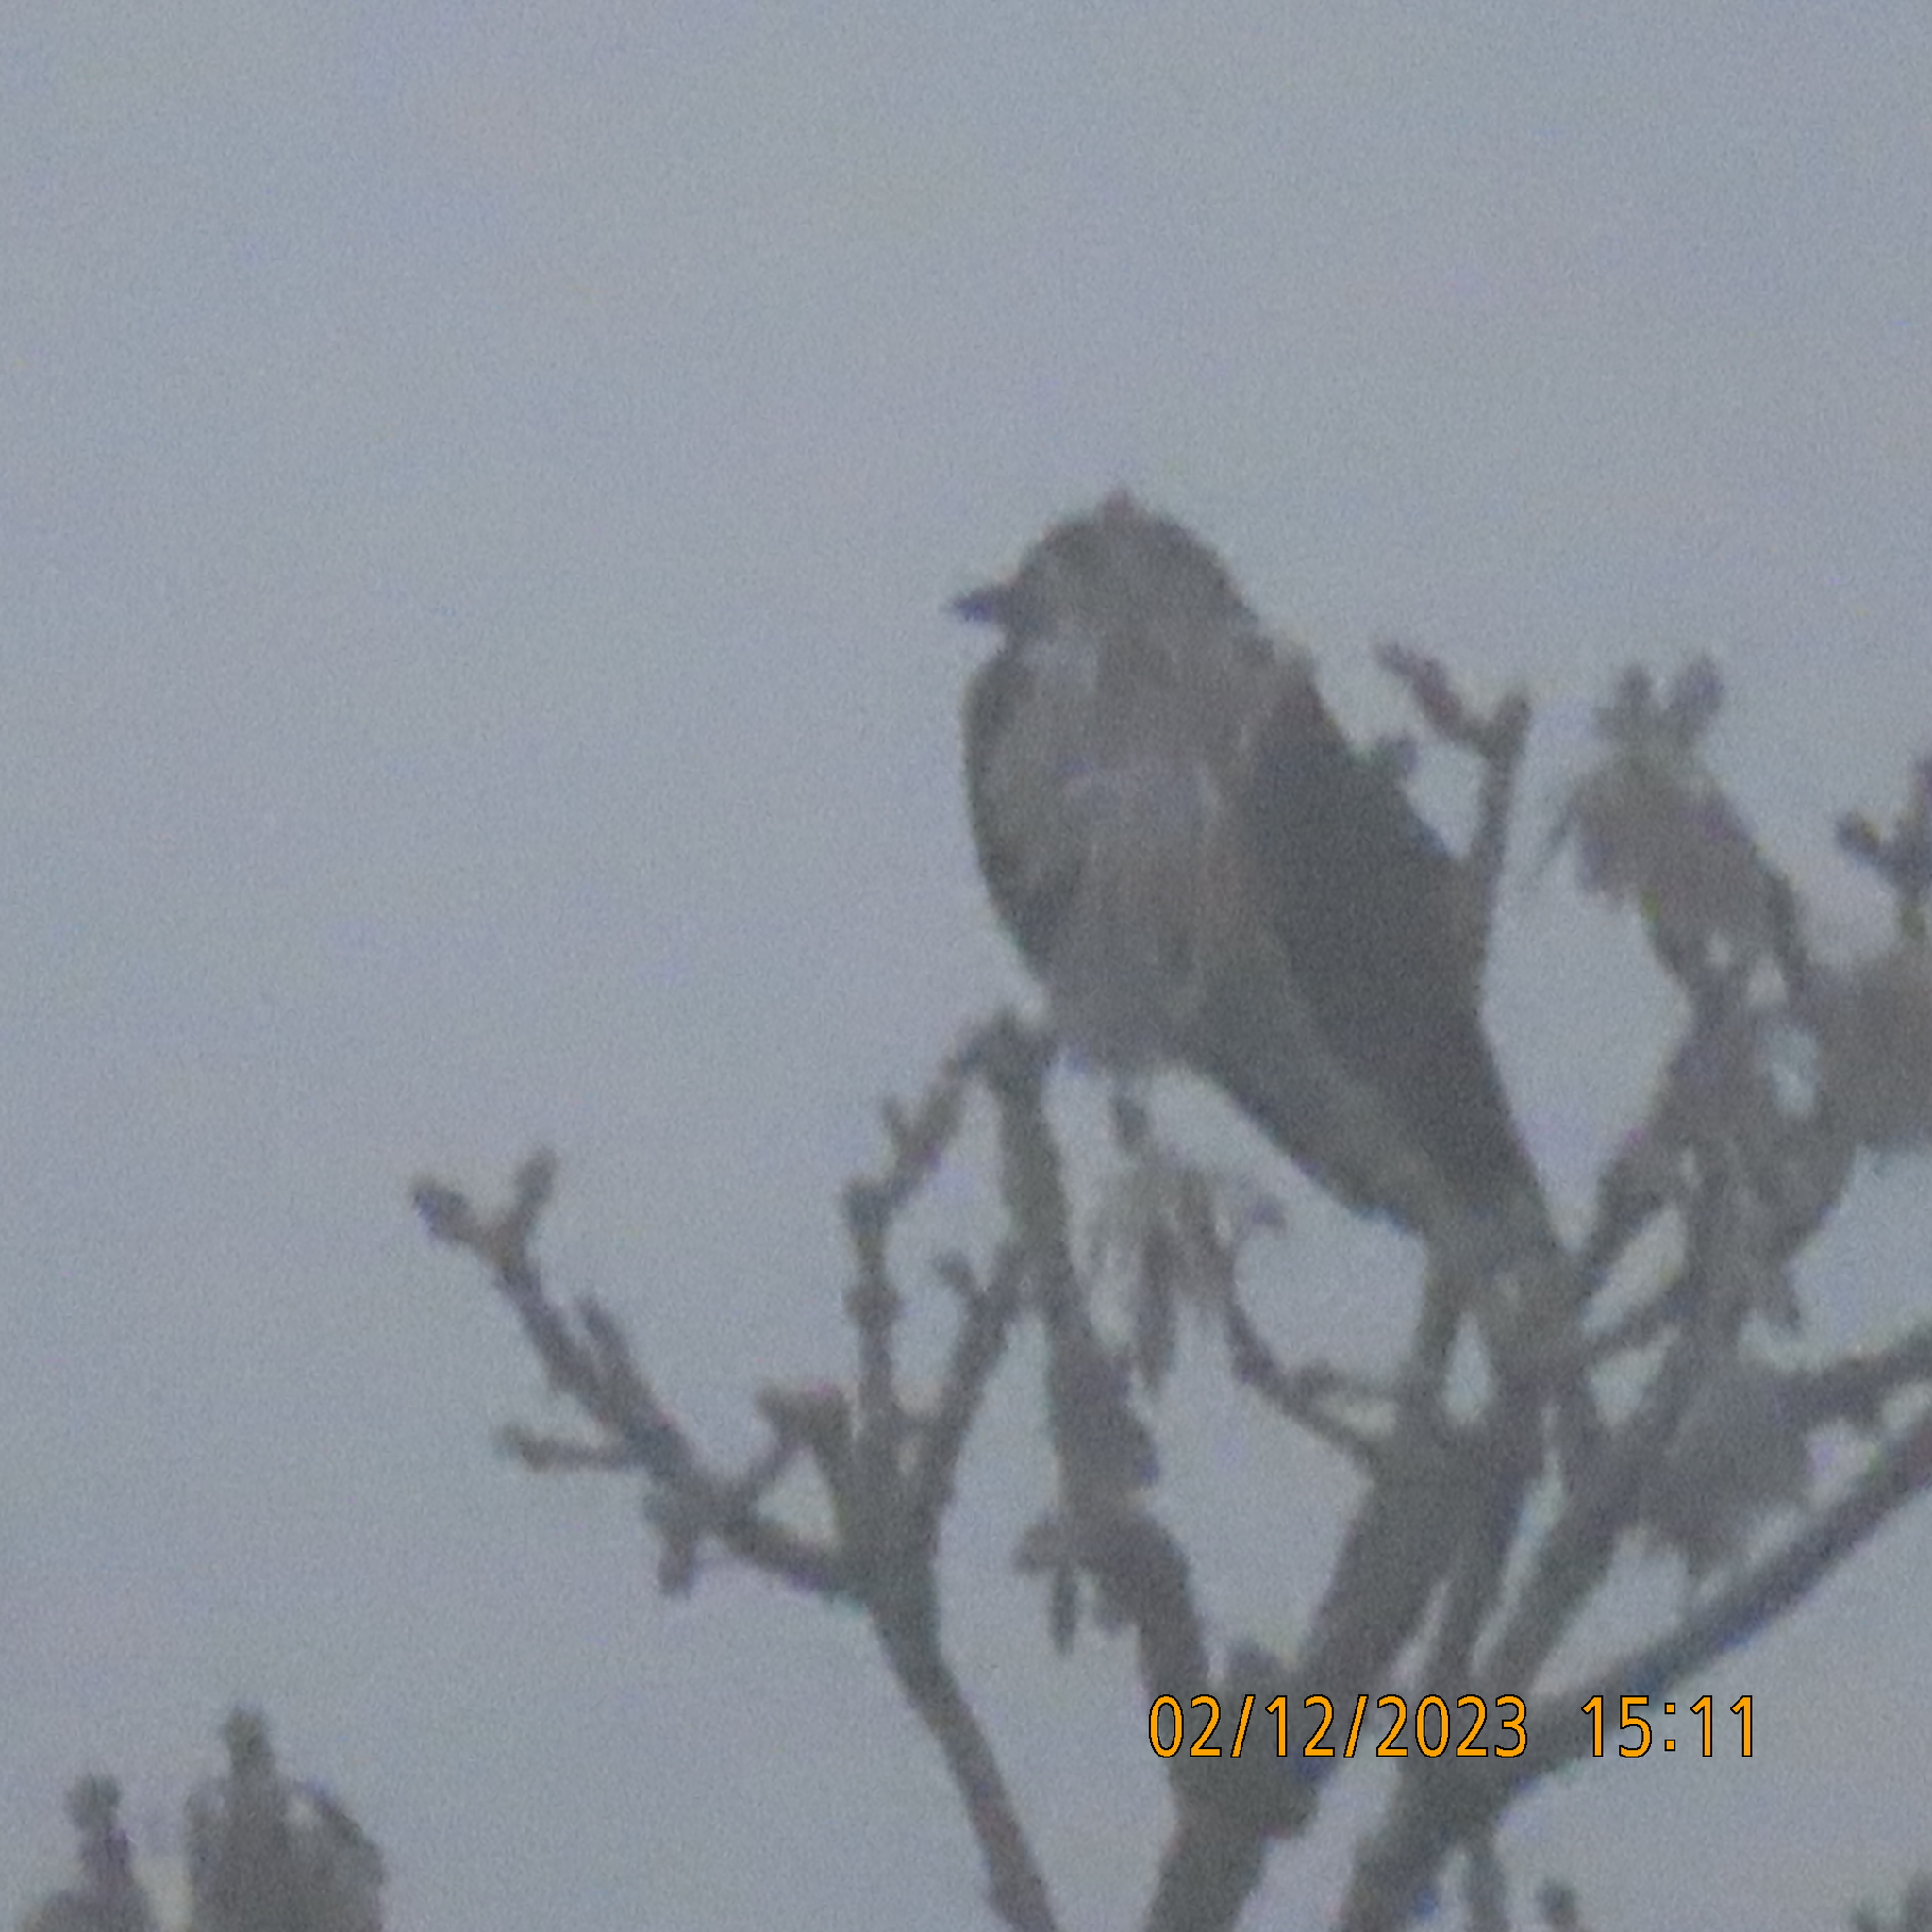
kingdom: Animalia
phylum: Chordata
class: Aves
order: Passeriformes
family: Corvidae
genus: Coloeus
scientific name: Coloeus monedula
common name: Western jackdaw
